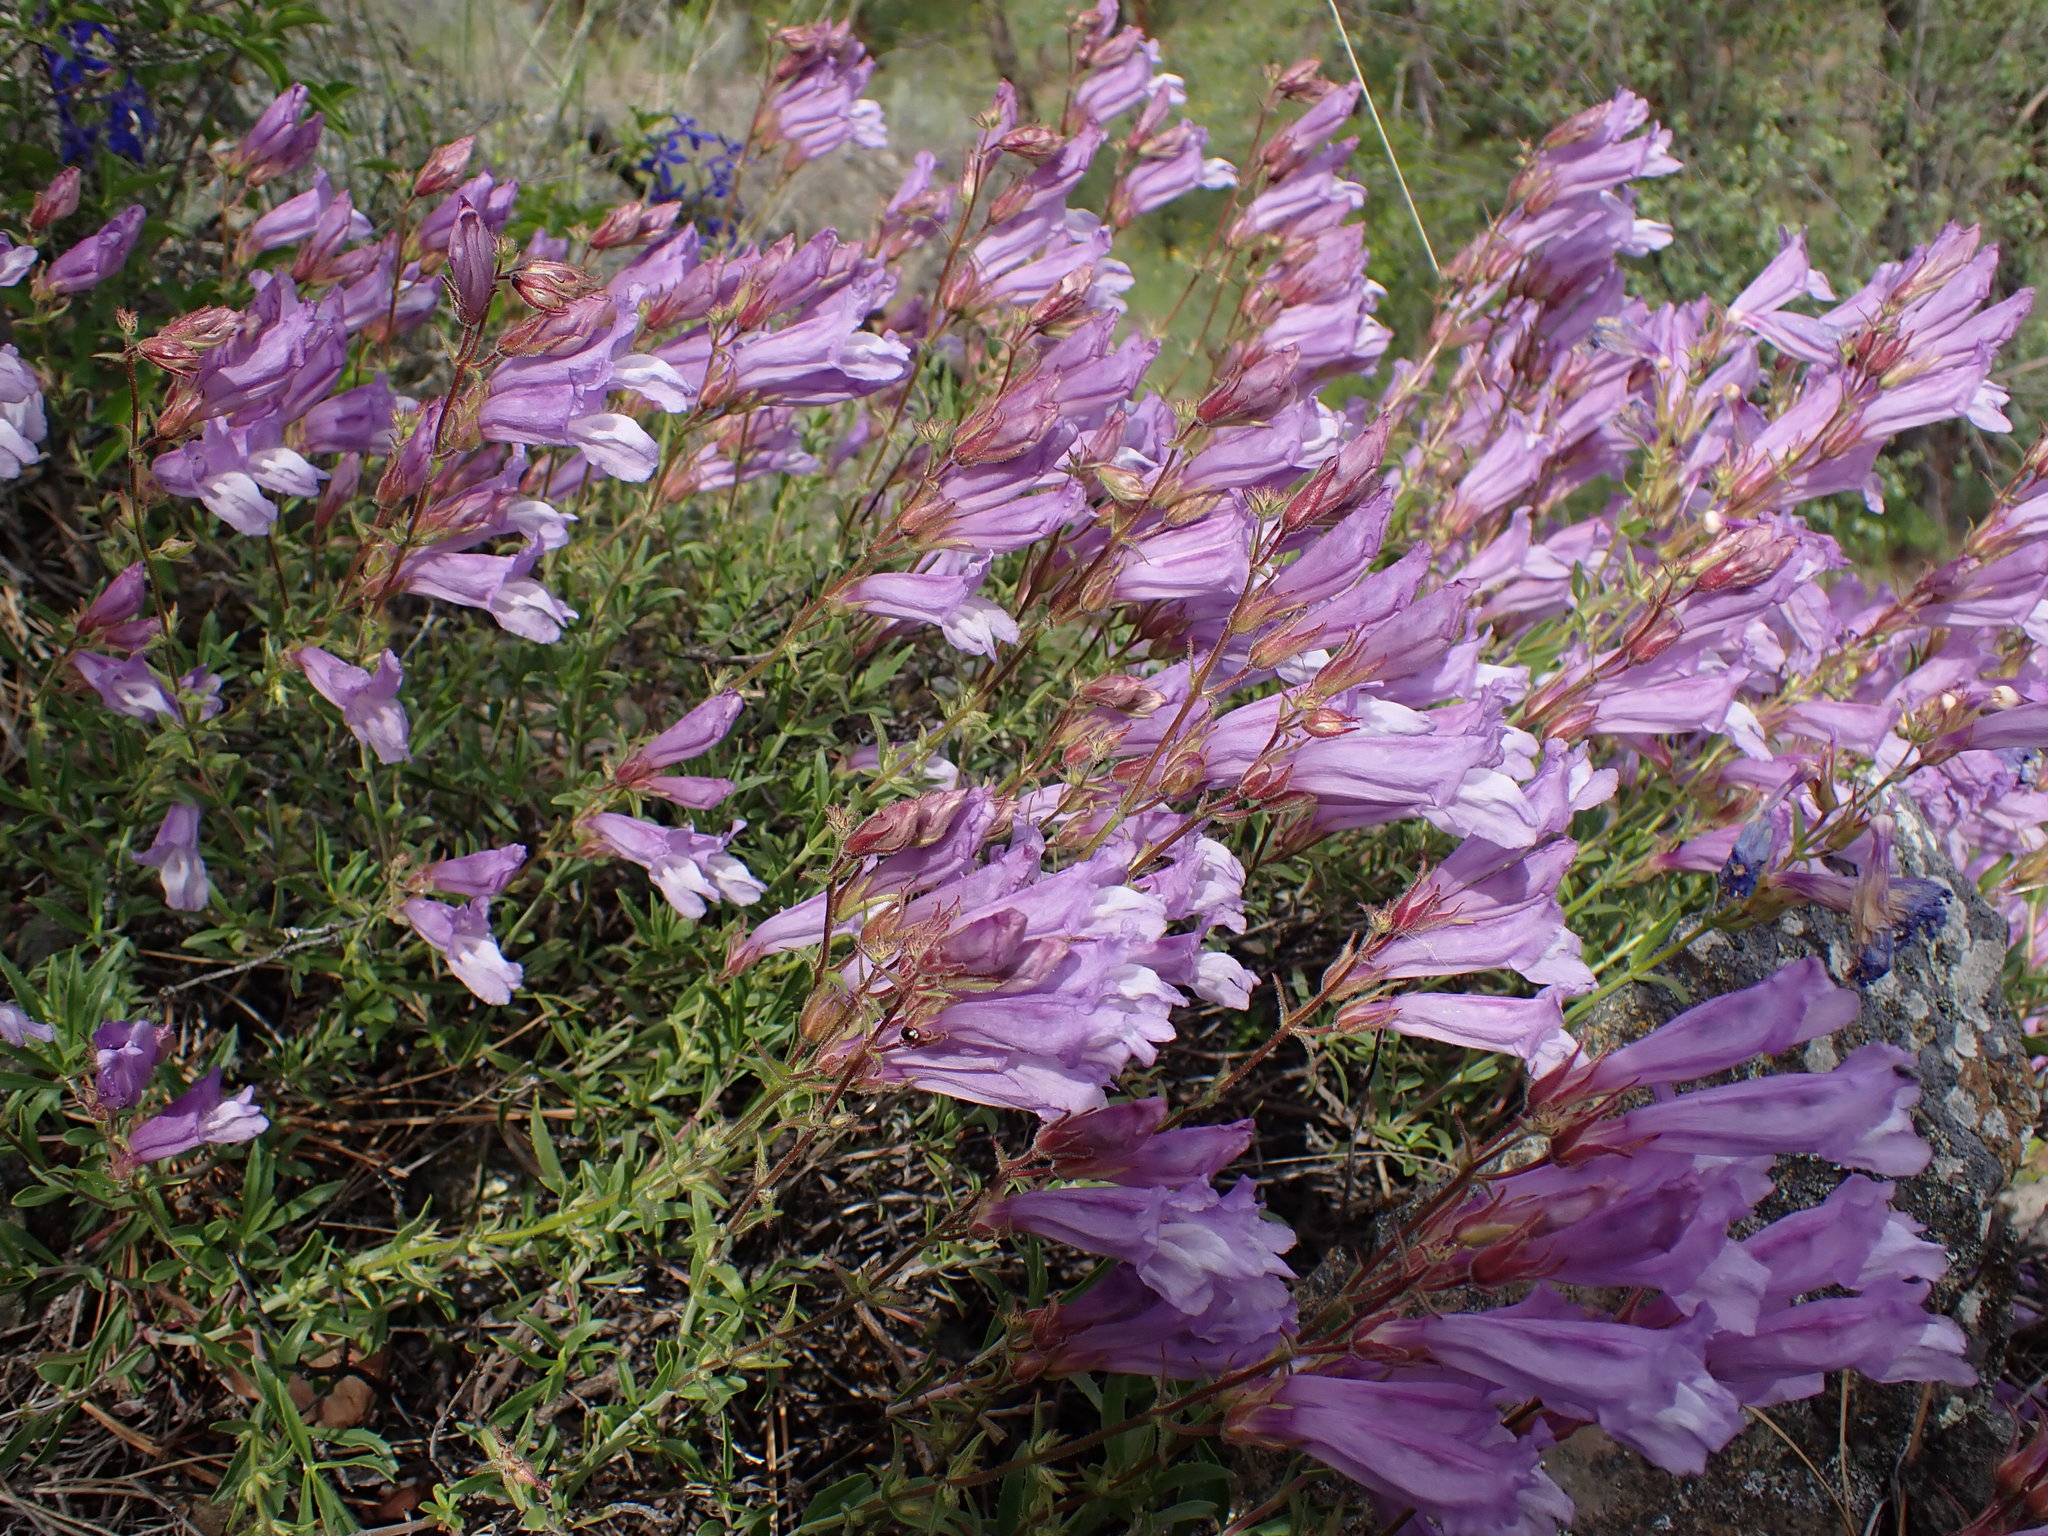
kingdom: Plantae
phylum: Tracheophyta
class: Magnoliopsida
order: Lamiales
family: Plantaginaceae
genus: Penstemon
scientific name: Penstemon fruticosus
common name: Bush penstemon
